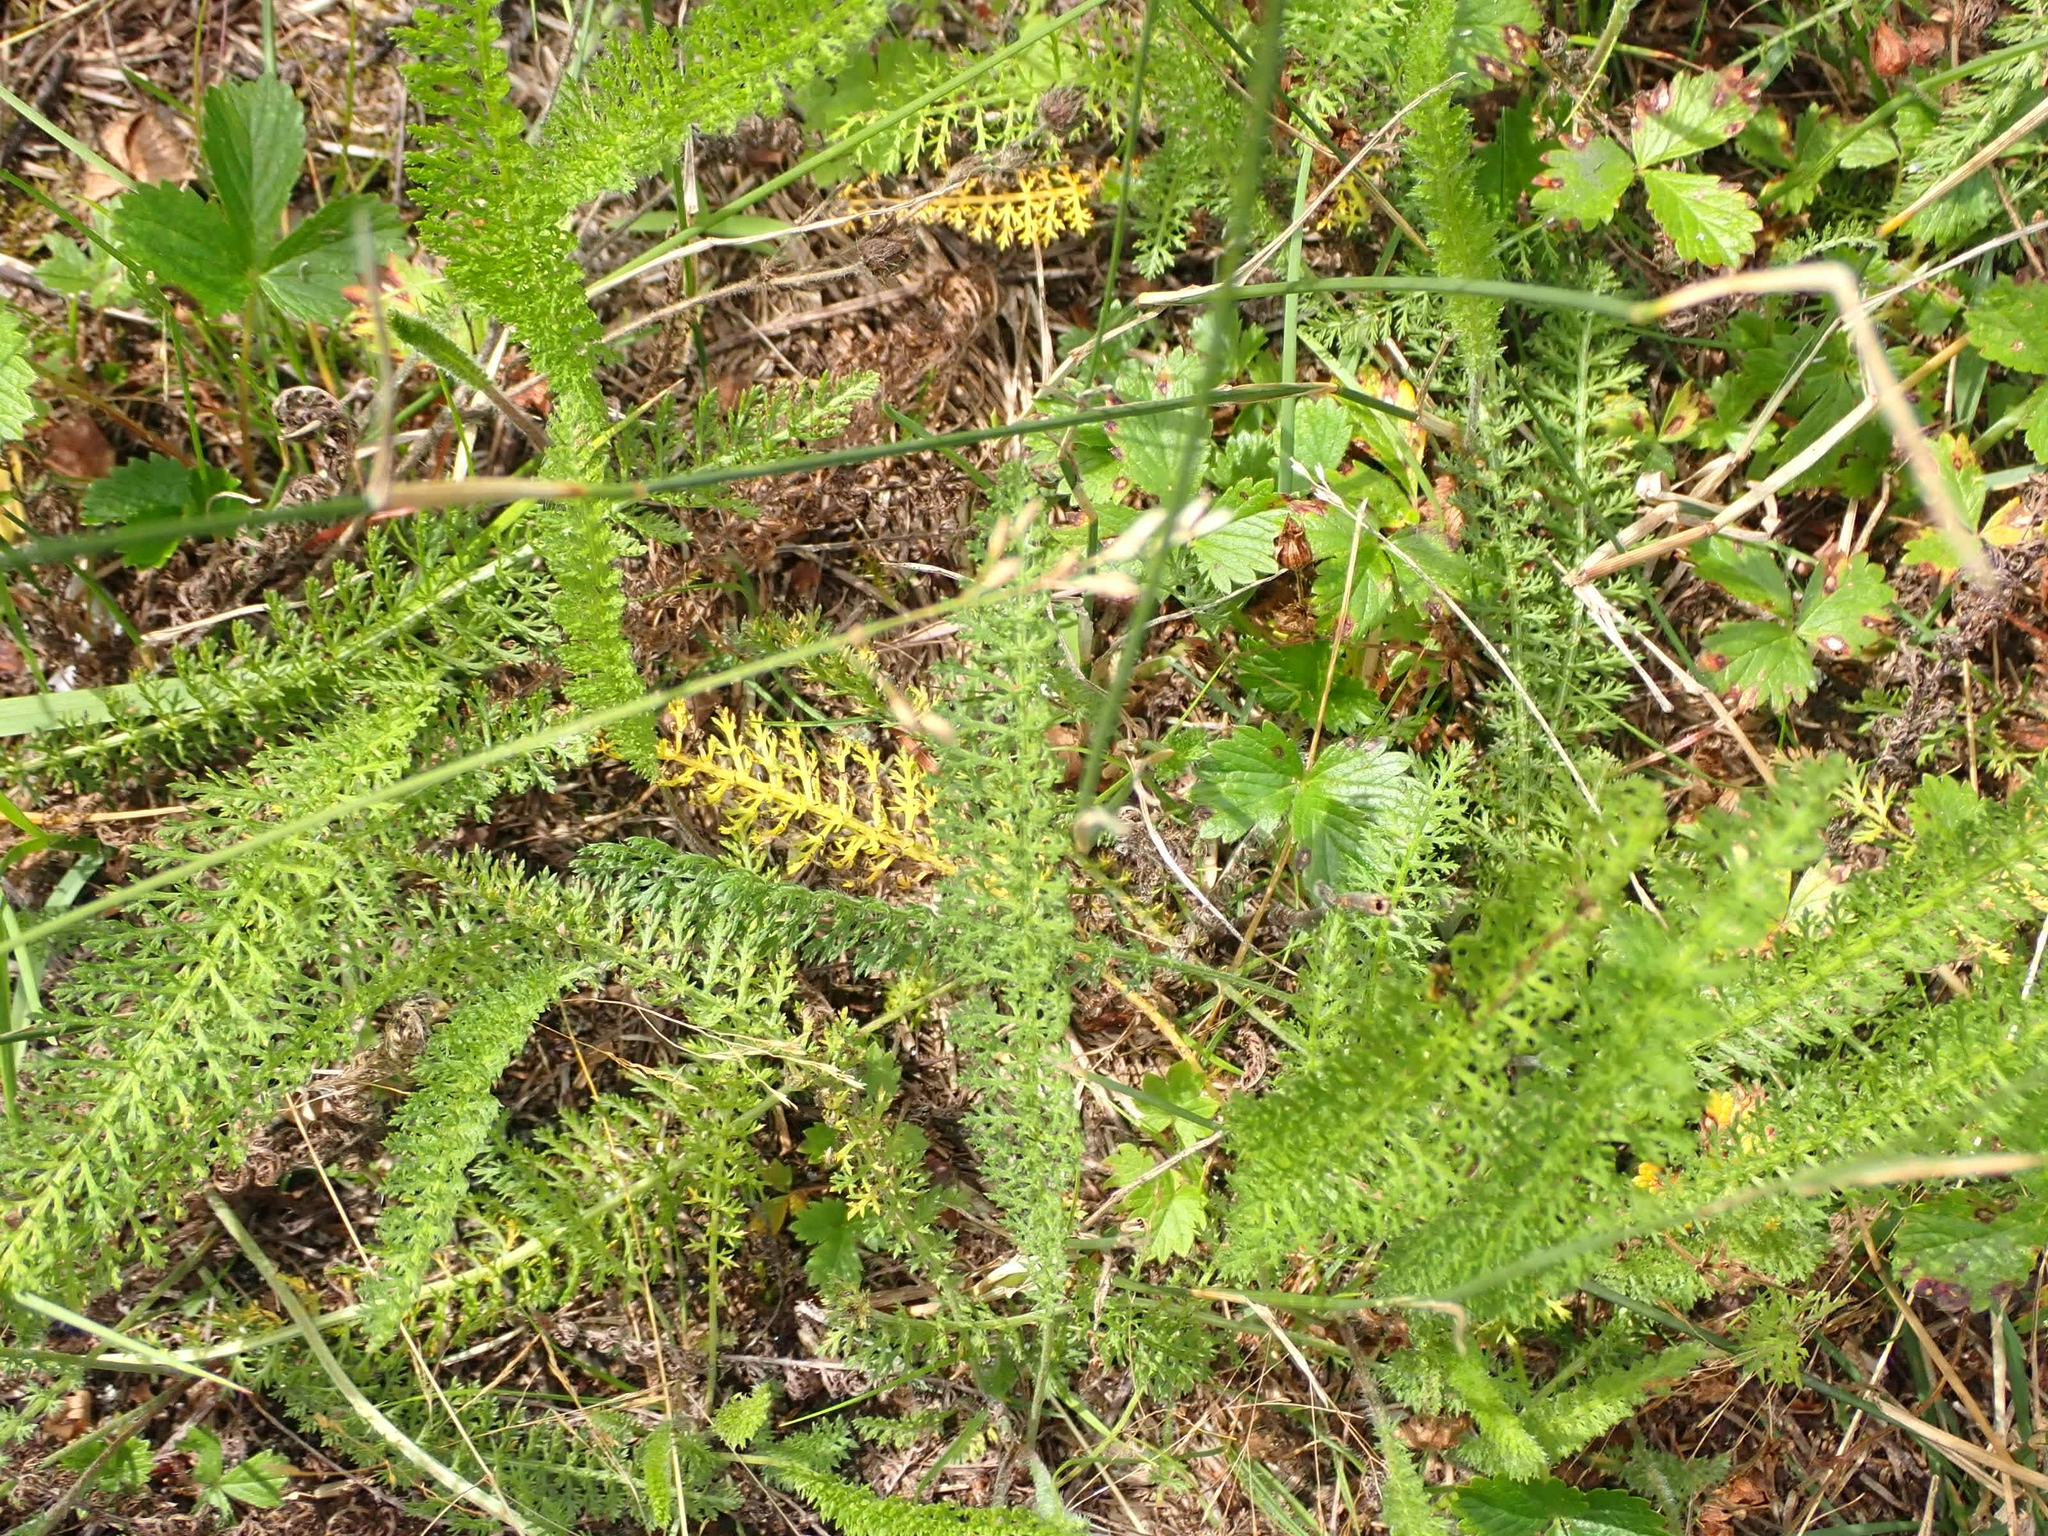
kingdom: Plantae
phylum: Tracheophyta
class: Magnoliopsida
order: Asterales
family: Asteraceae
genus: Achillea
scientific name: Achillea millefolium
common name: Yarrow
